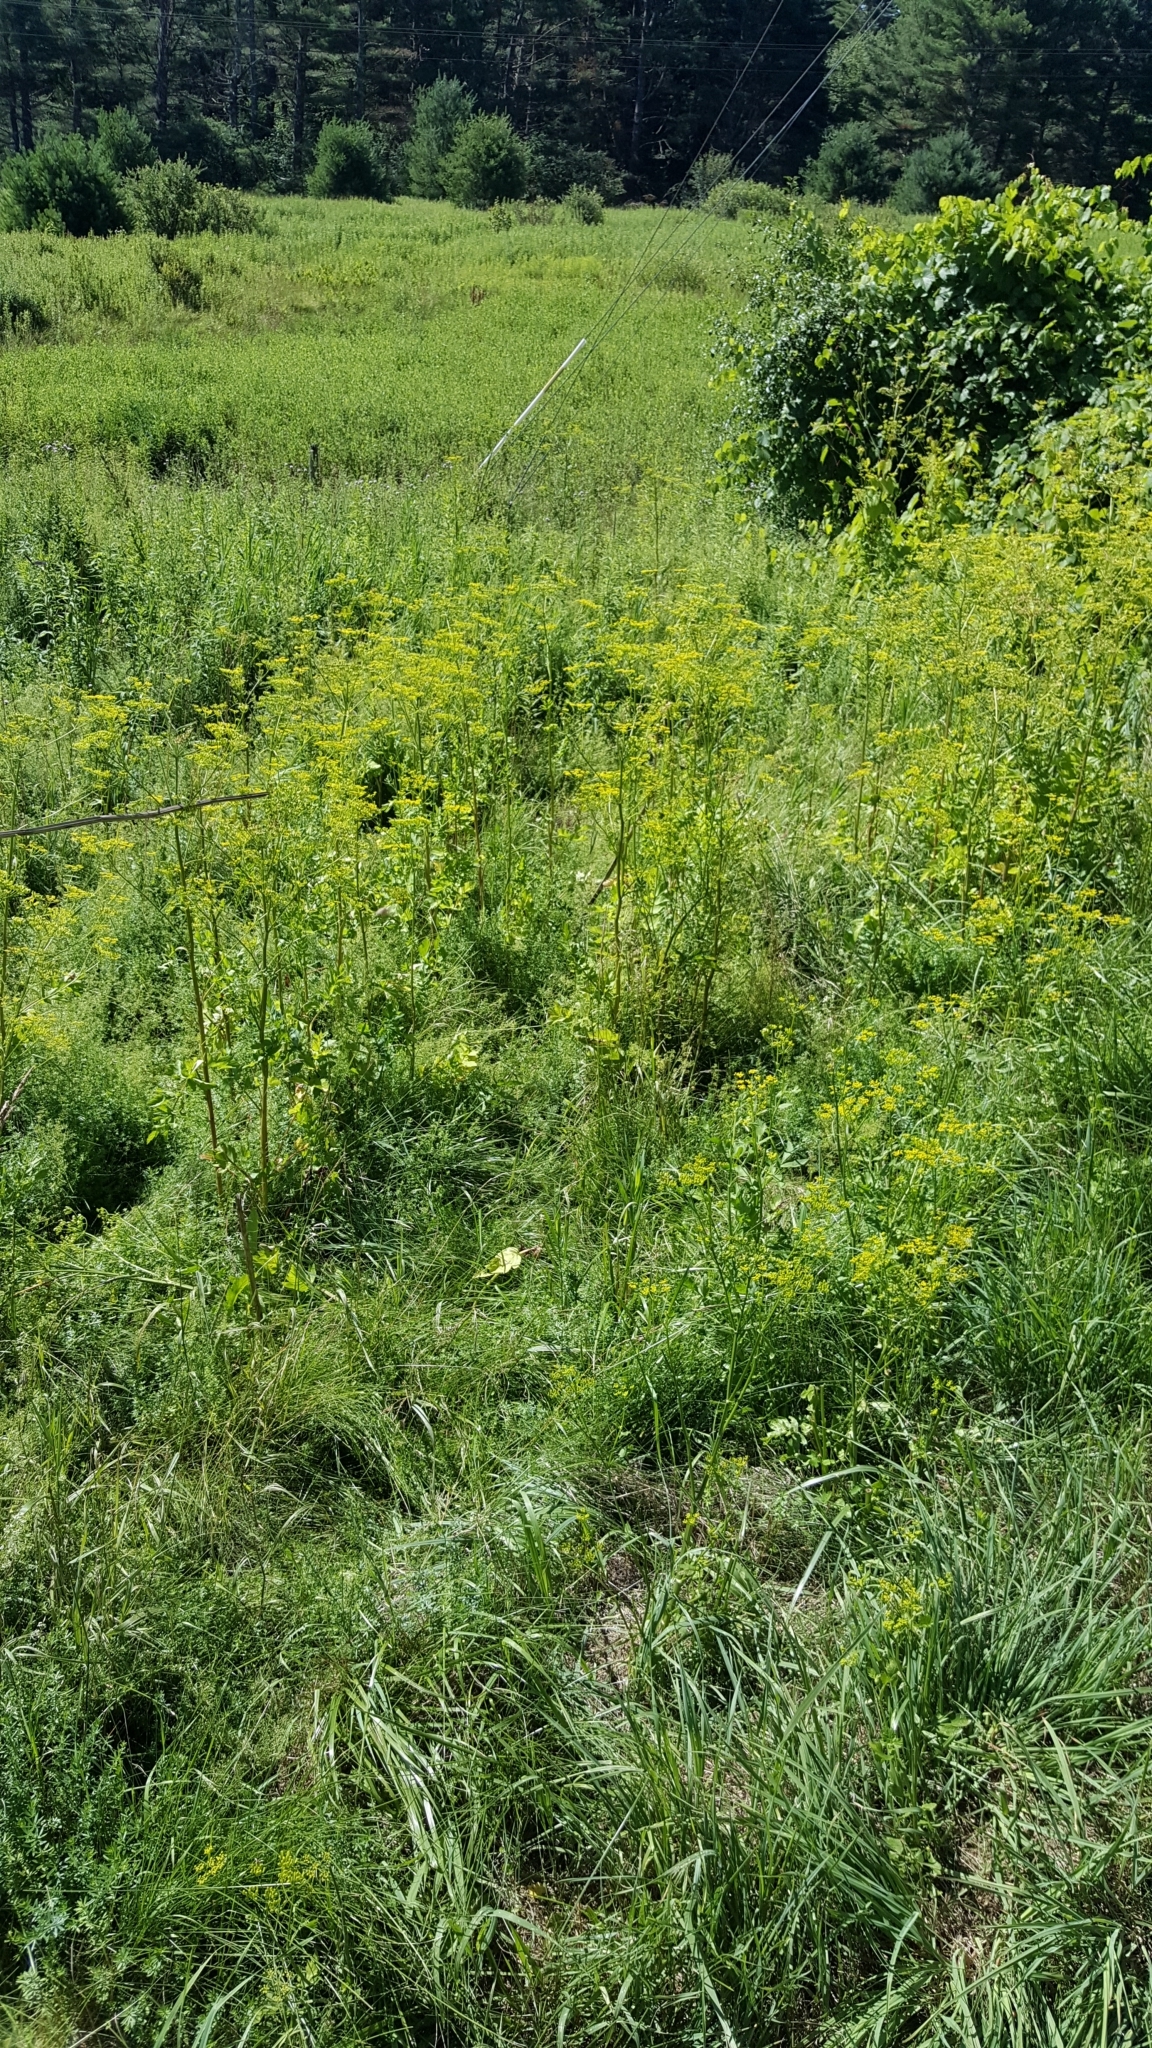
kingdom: Plantae
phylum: Tracheophyta
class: Magnoliopsida
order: Apiales
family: Apiaceae
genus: Pastinaca
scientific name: Pastinaca sativa
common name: Wild parsnip
